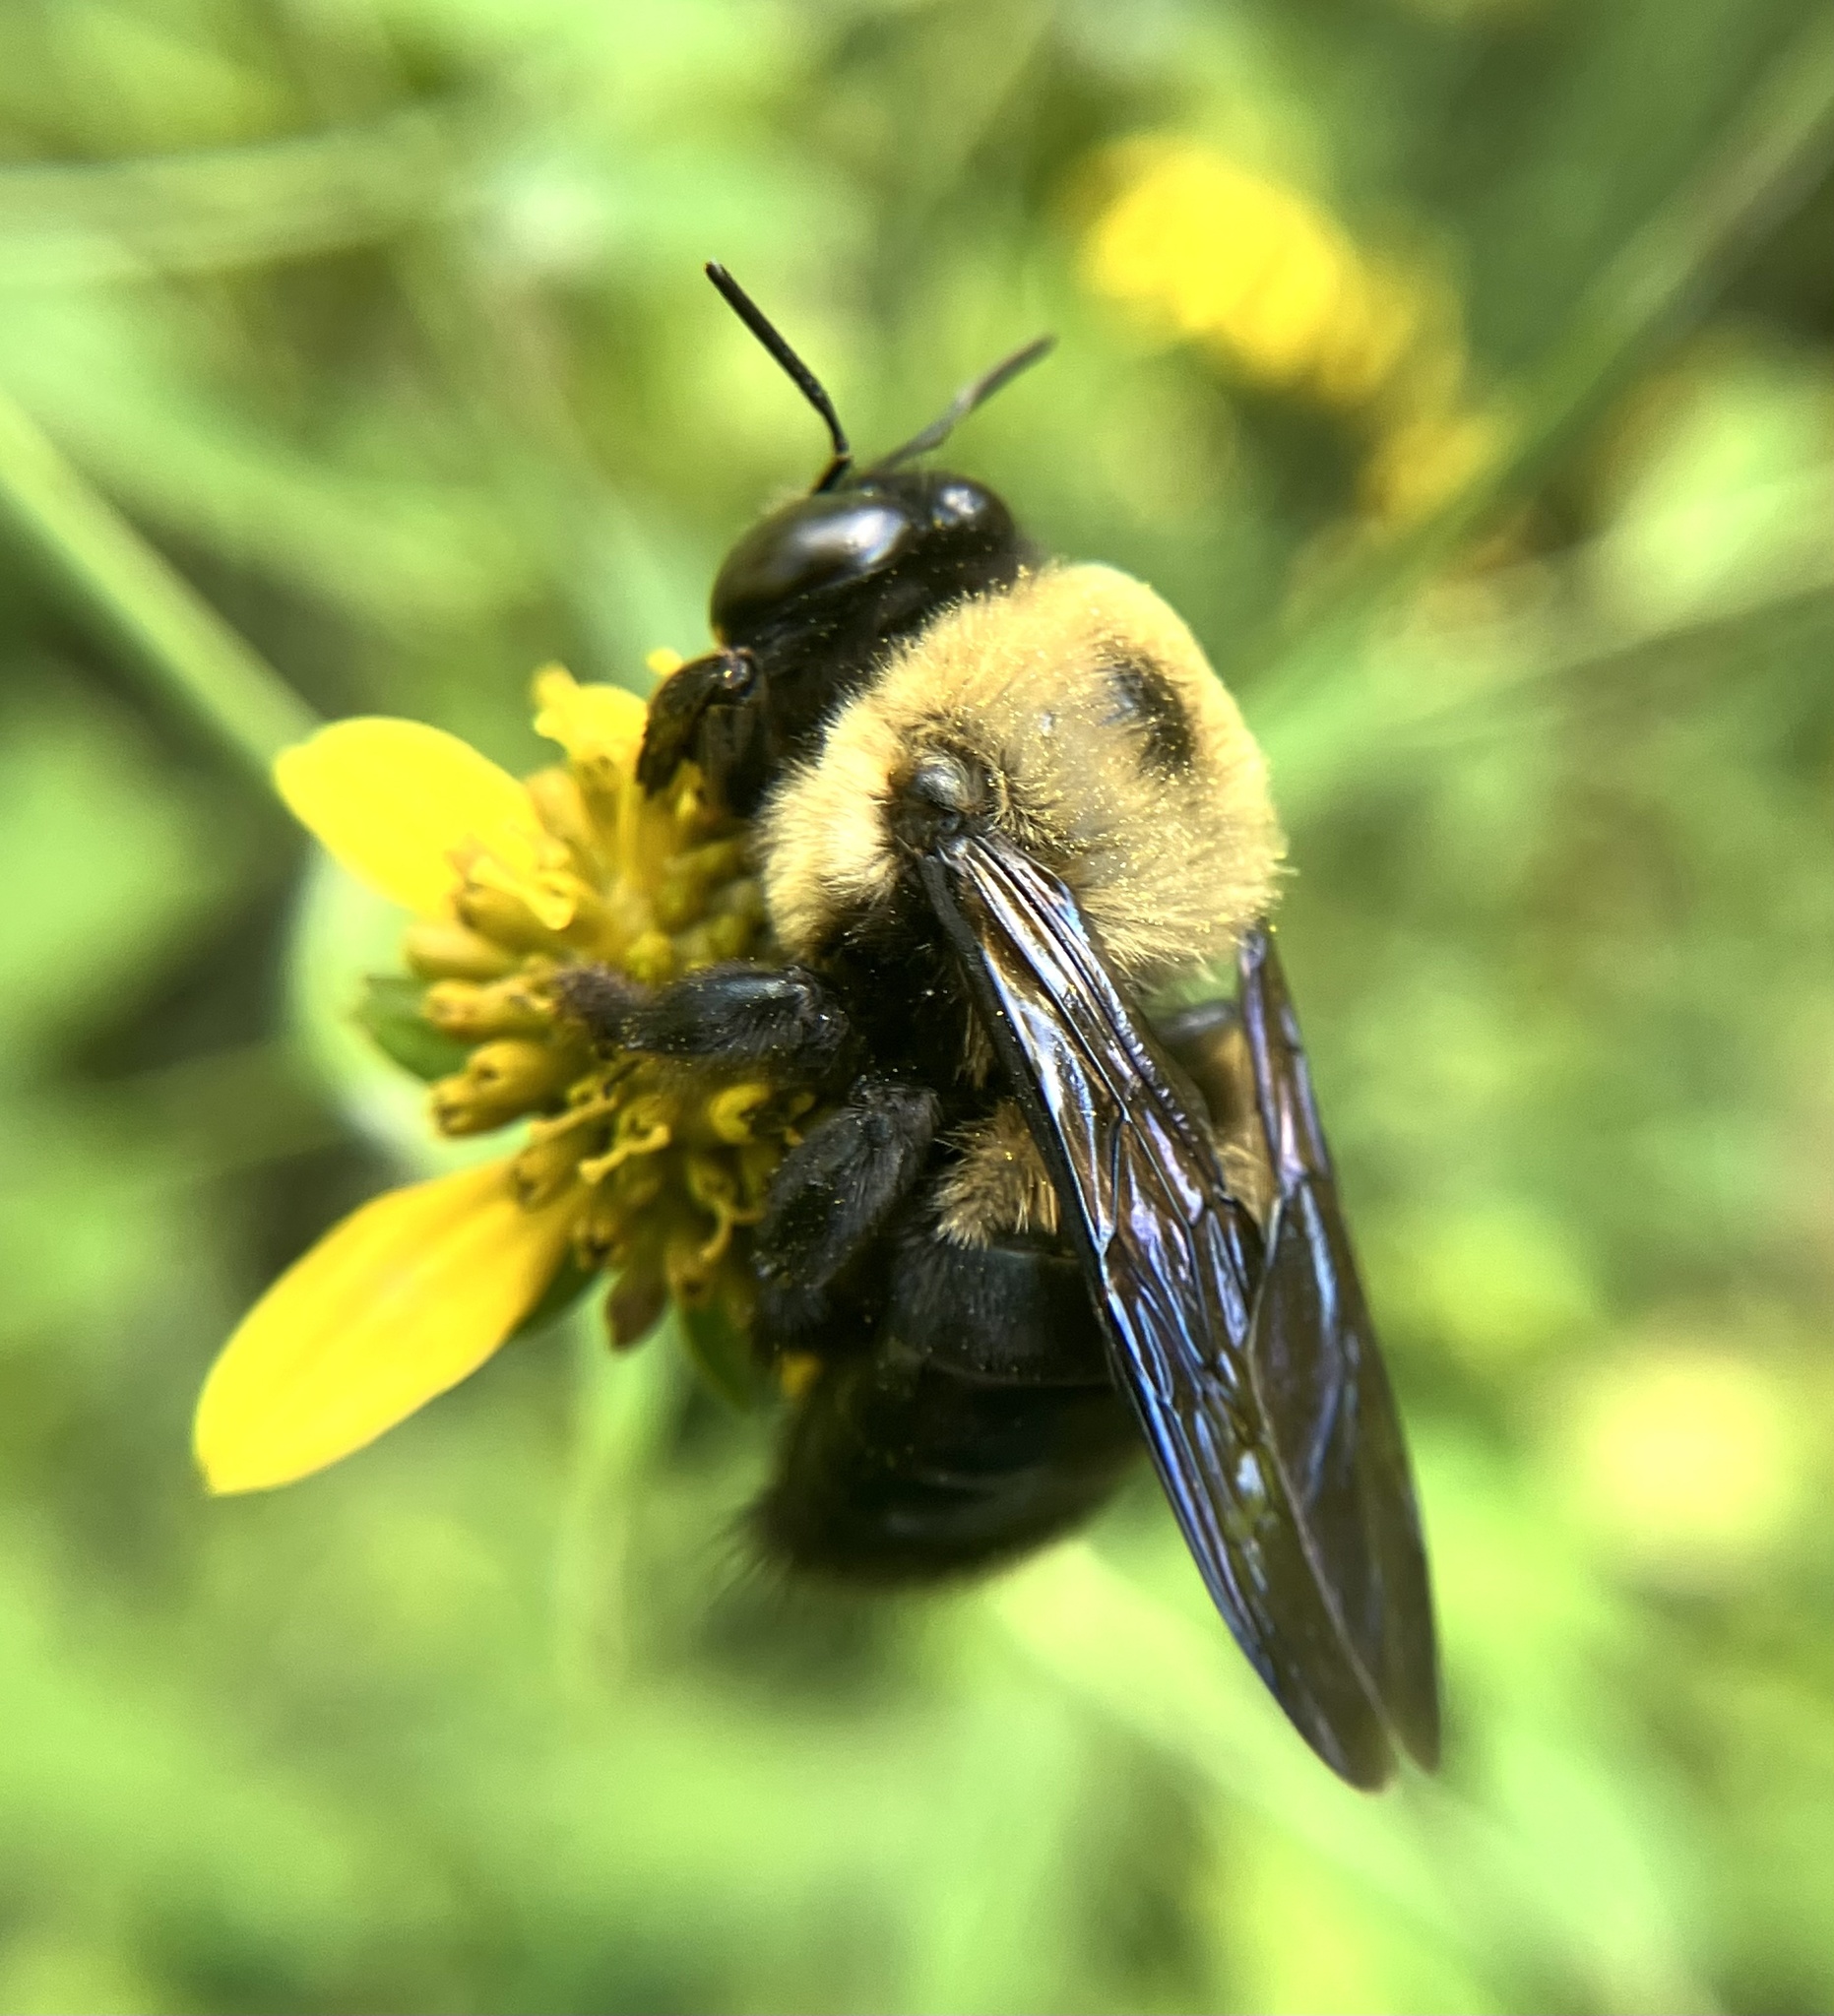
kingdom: Animalia
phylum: Arthropoda
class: Insecta
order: Hymenoptera
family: Apidae
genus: Xylocopa
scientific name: Xylocopa virginica
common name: Carpenter bee
